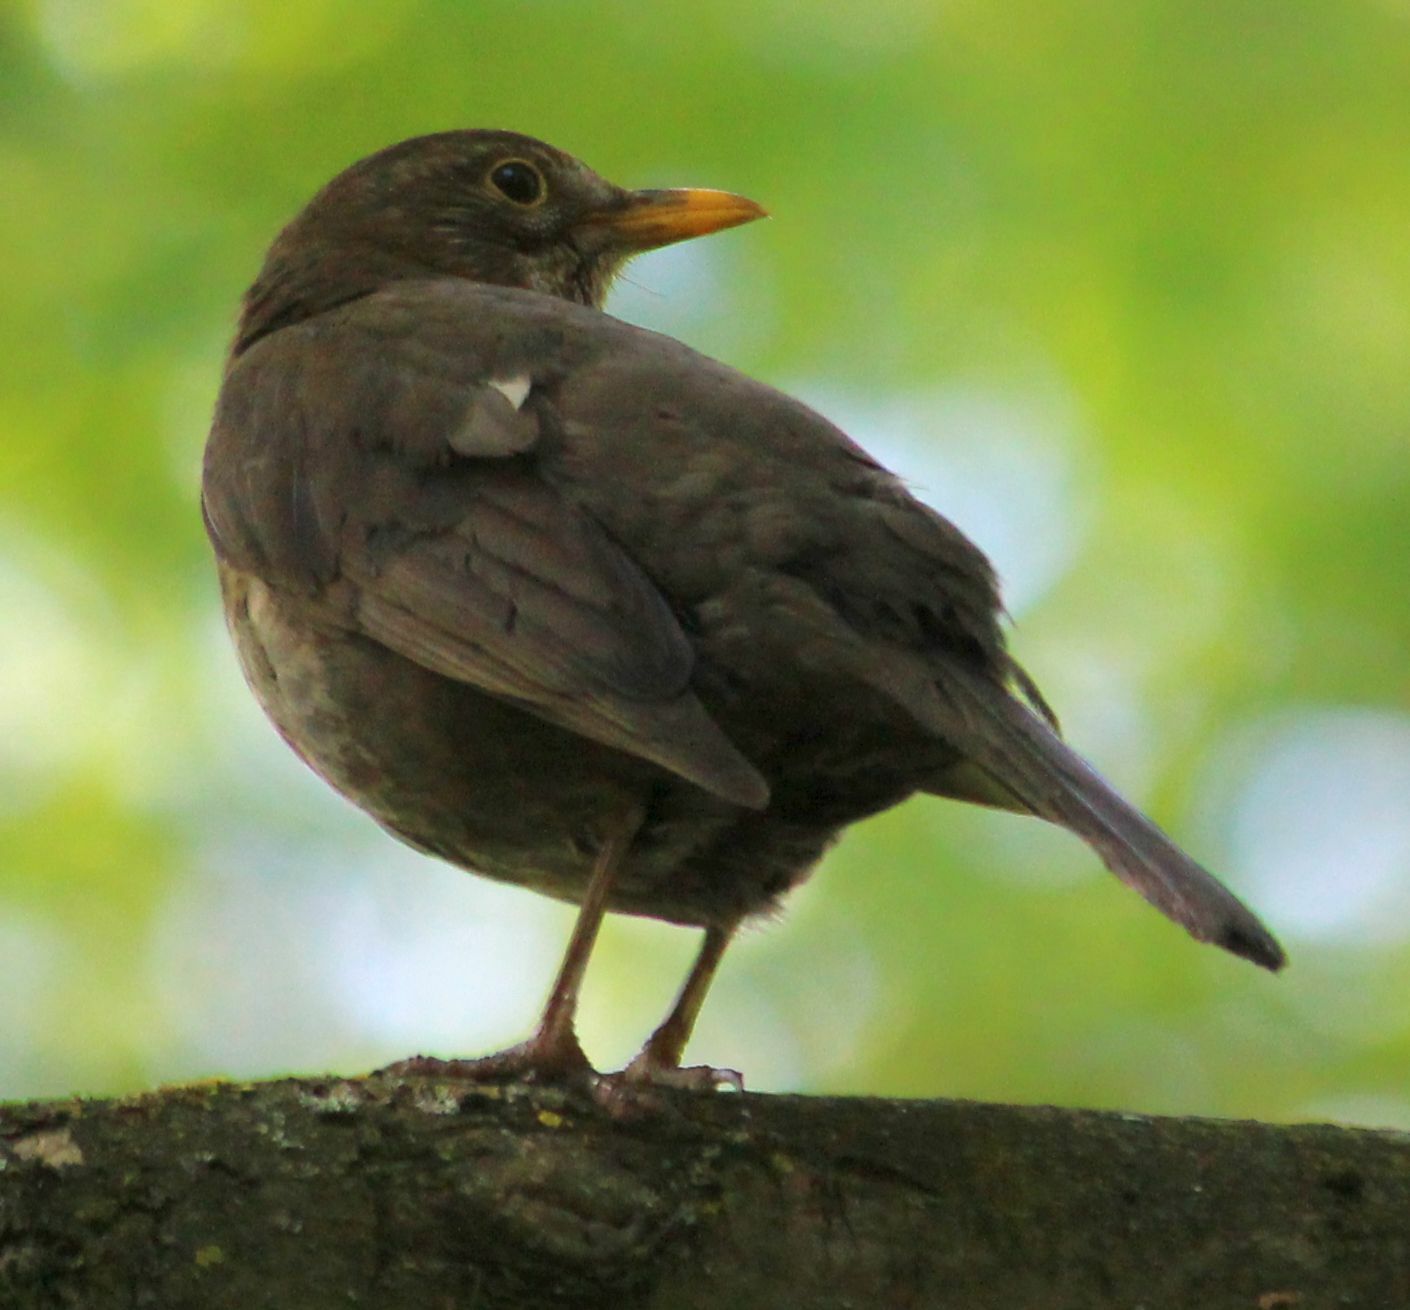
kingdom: Animalia
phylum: Chordata
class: Aves
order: Passeriformes
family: Turdidae
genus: Turdus
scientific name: Turdus merula
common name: Common blackbird
